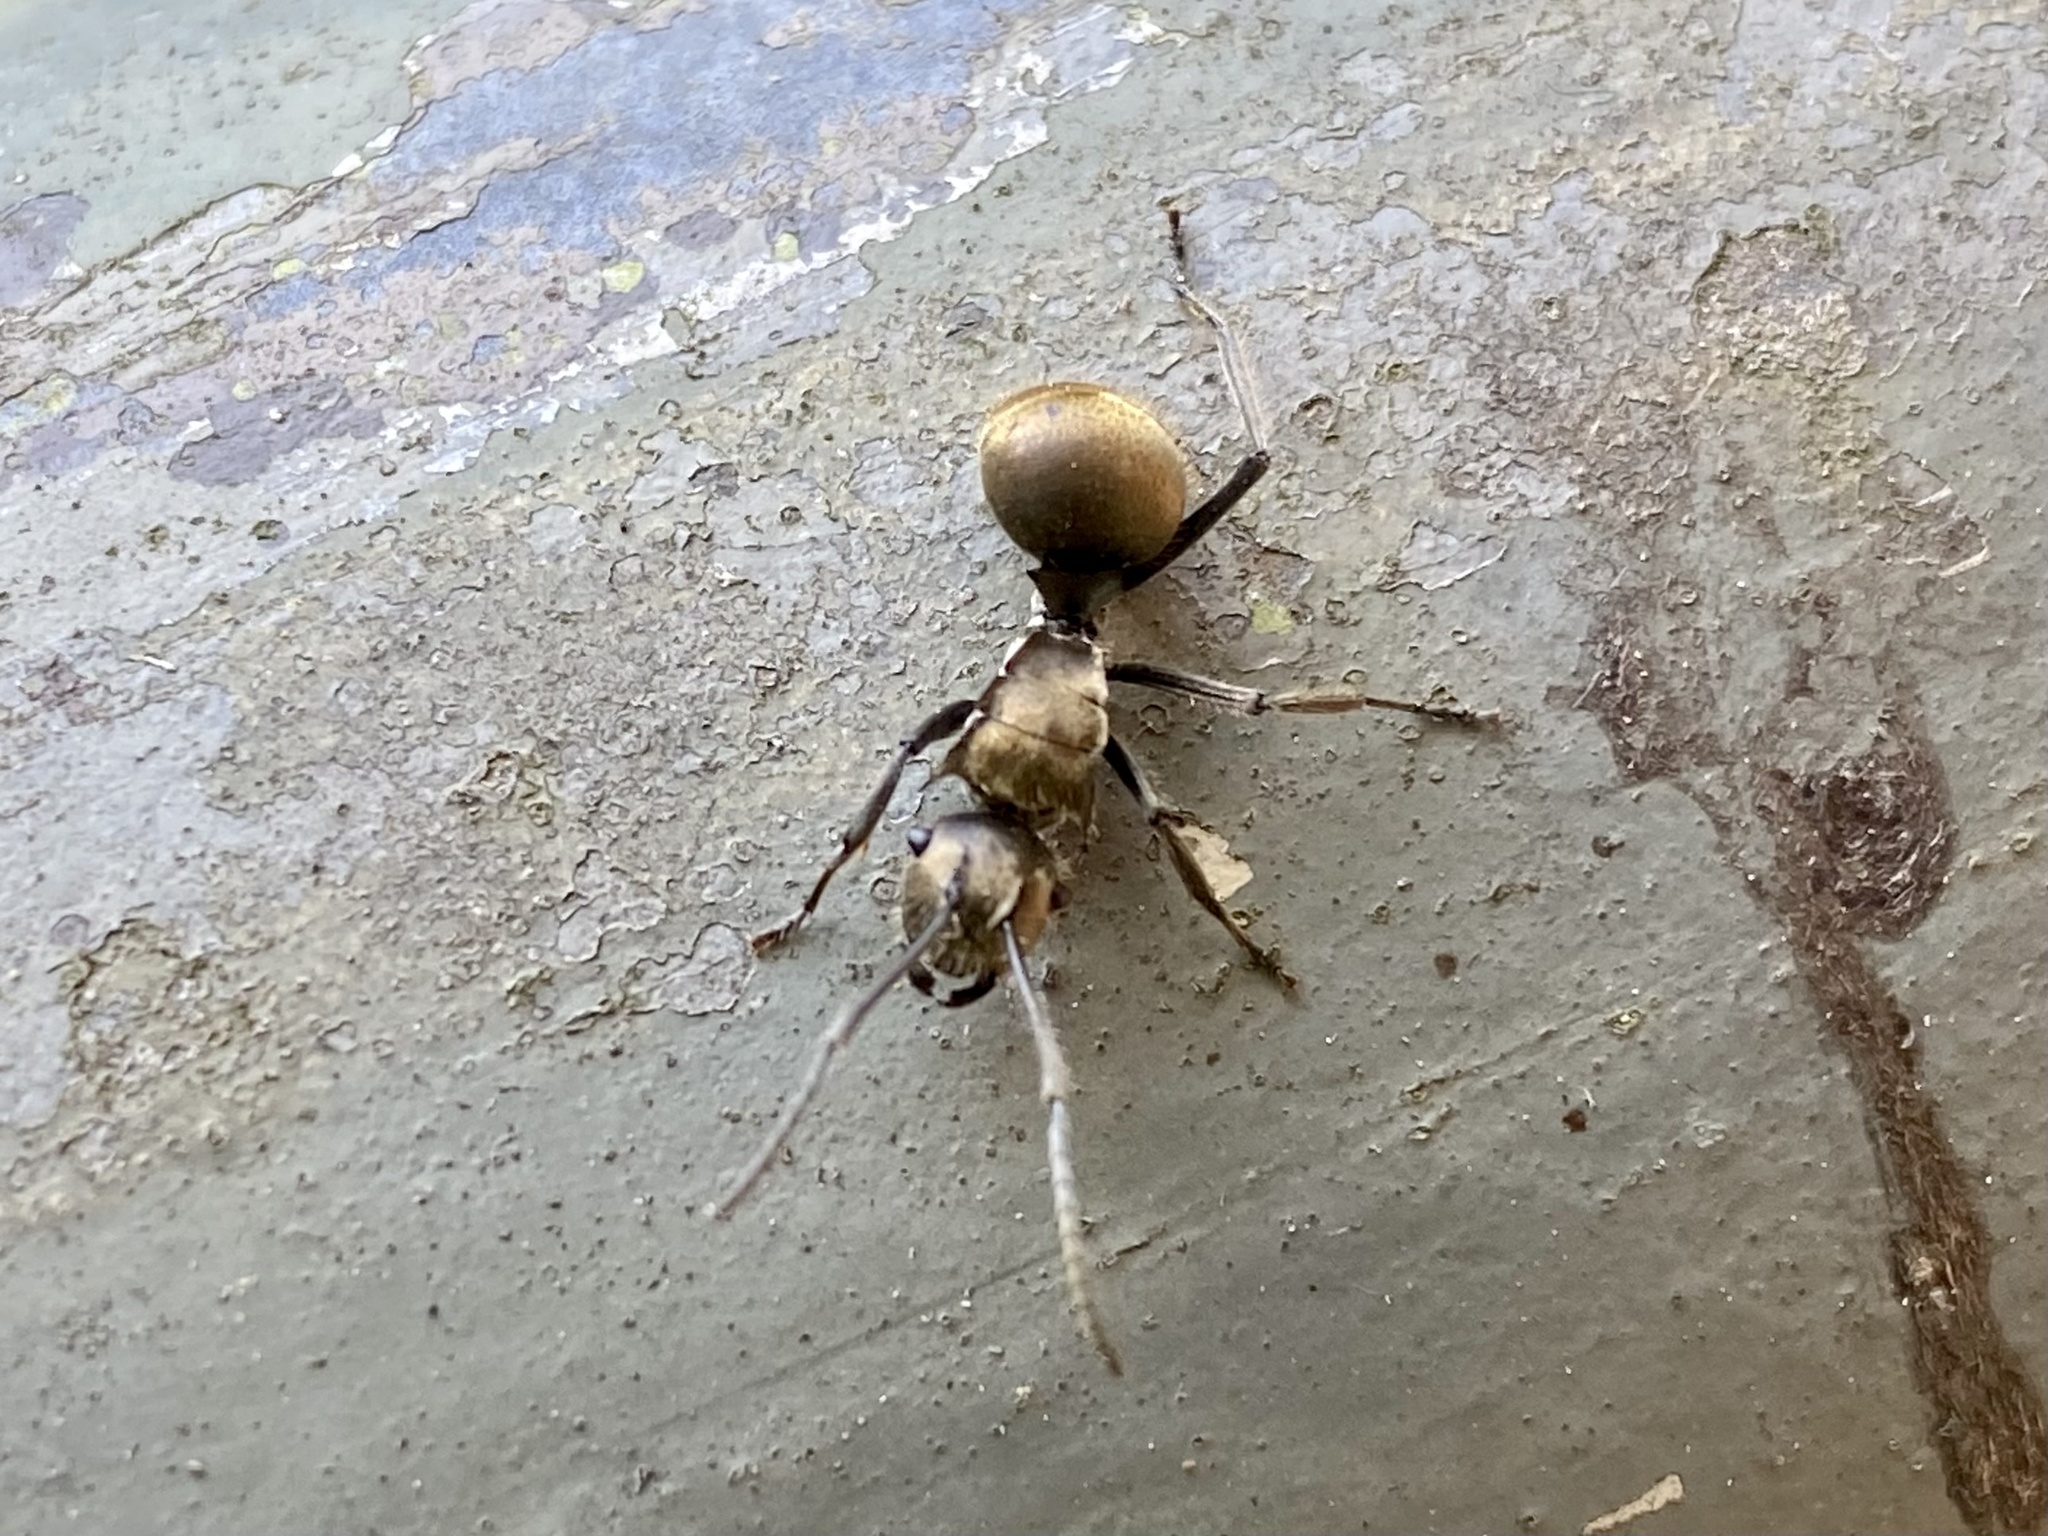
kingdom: Animalia
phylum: Arthropoda
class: Insecta
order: Hymenoptera
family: Formicidae
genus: Polyrhachis
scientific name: Polyrhachis vigilans
